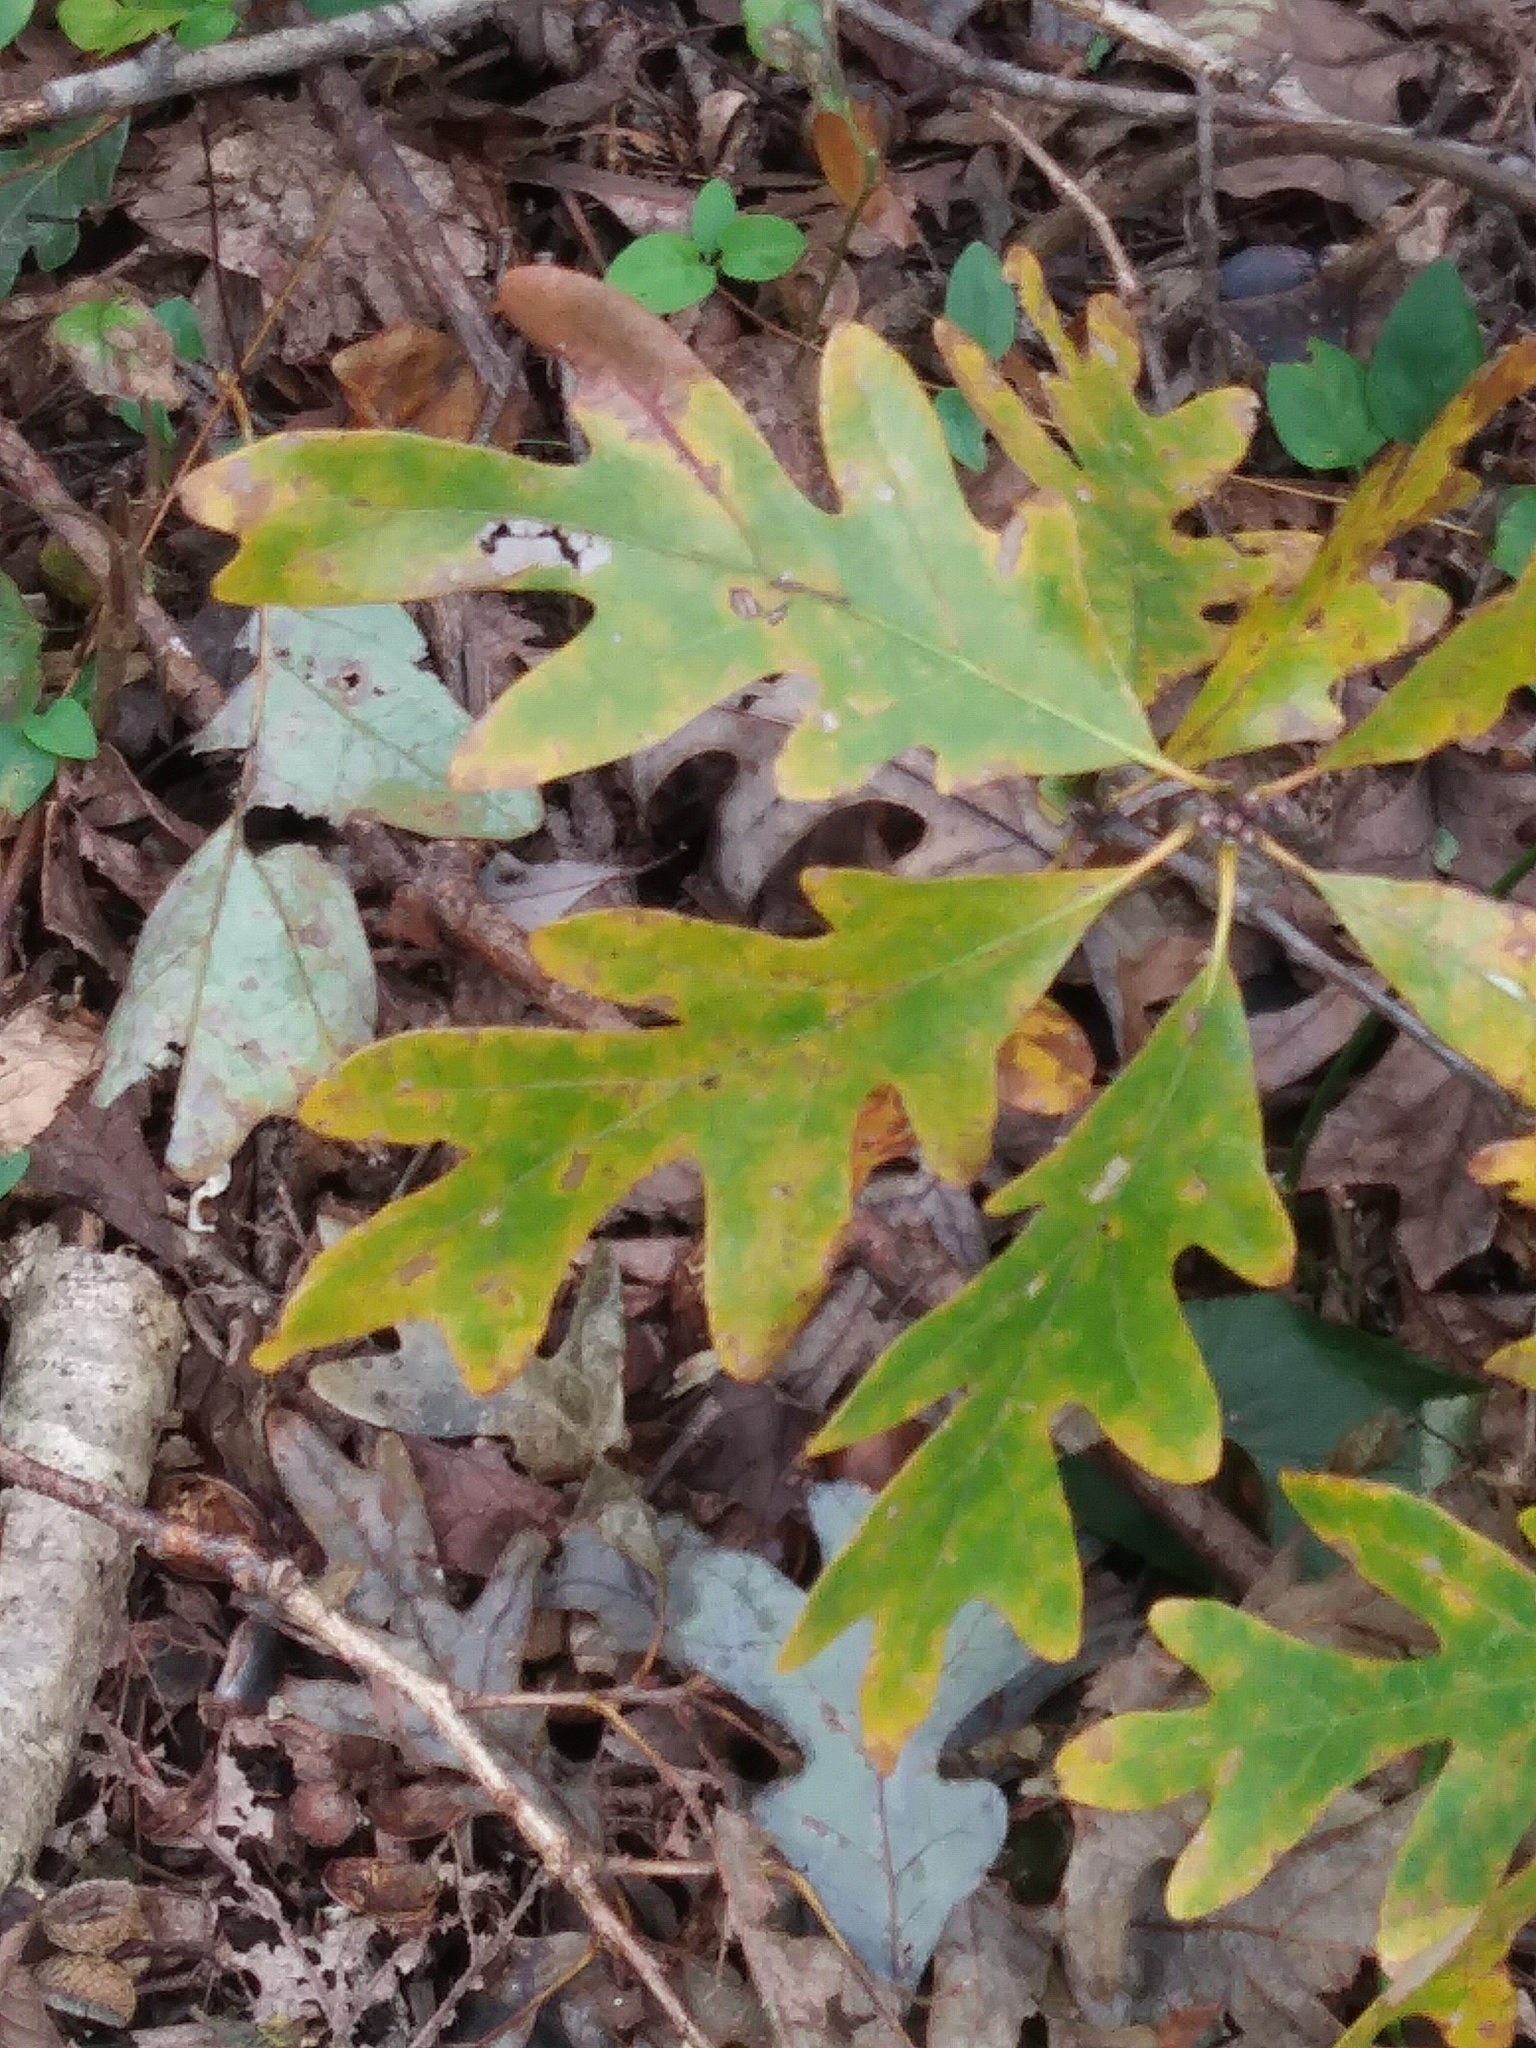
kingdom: Plantae
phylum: Tracheophyta
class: Magnoliopsida
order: Fagales
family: Fagaceae
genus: Quercus
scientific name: Quercus alba
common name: White oak
